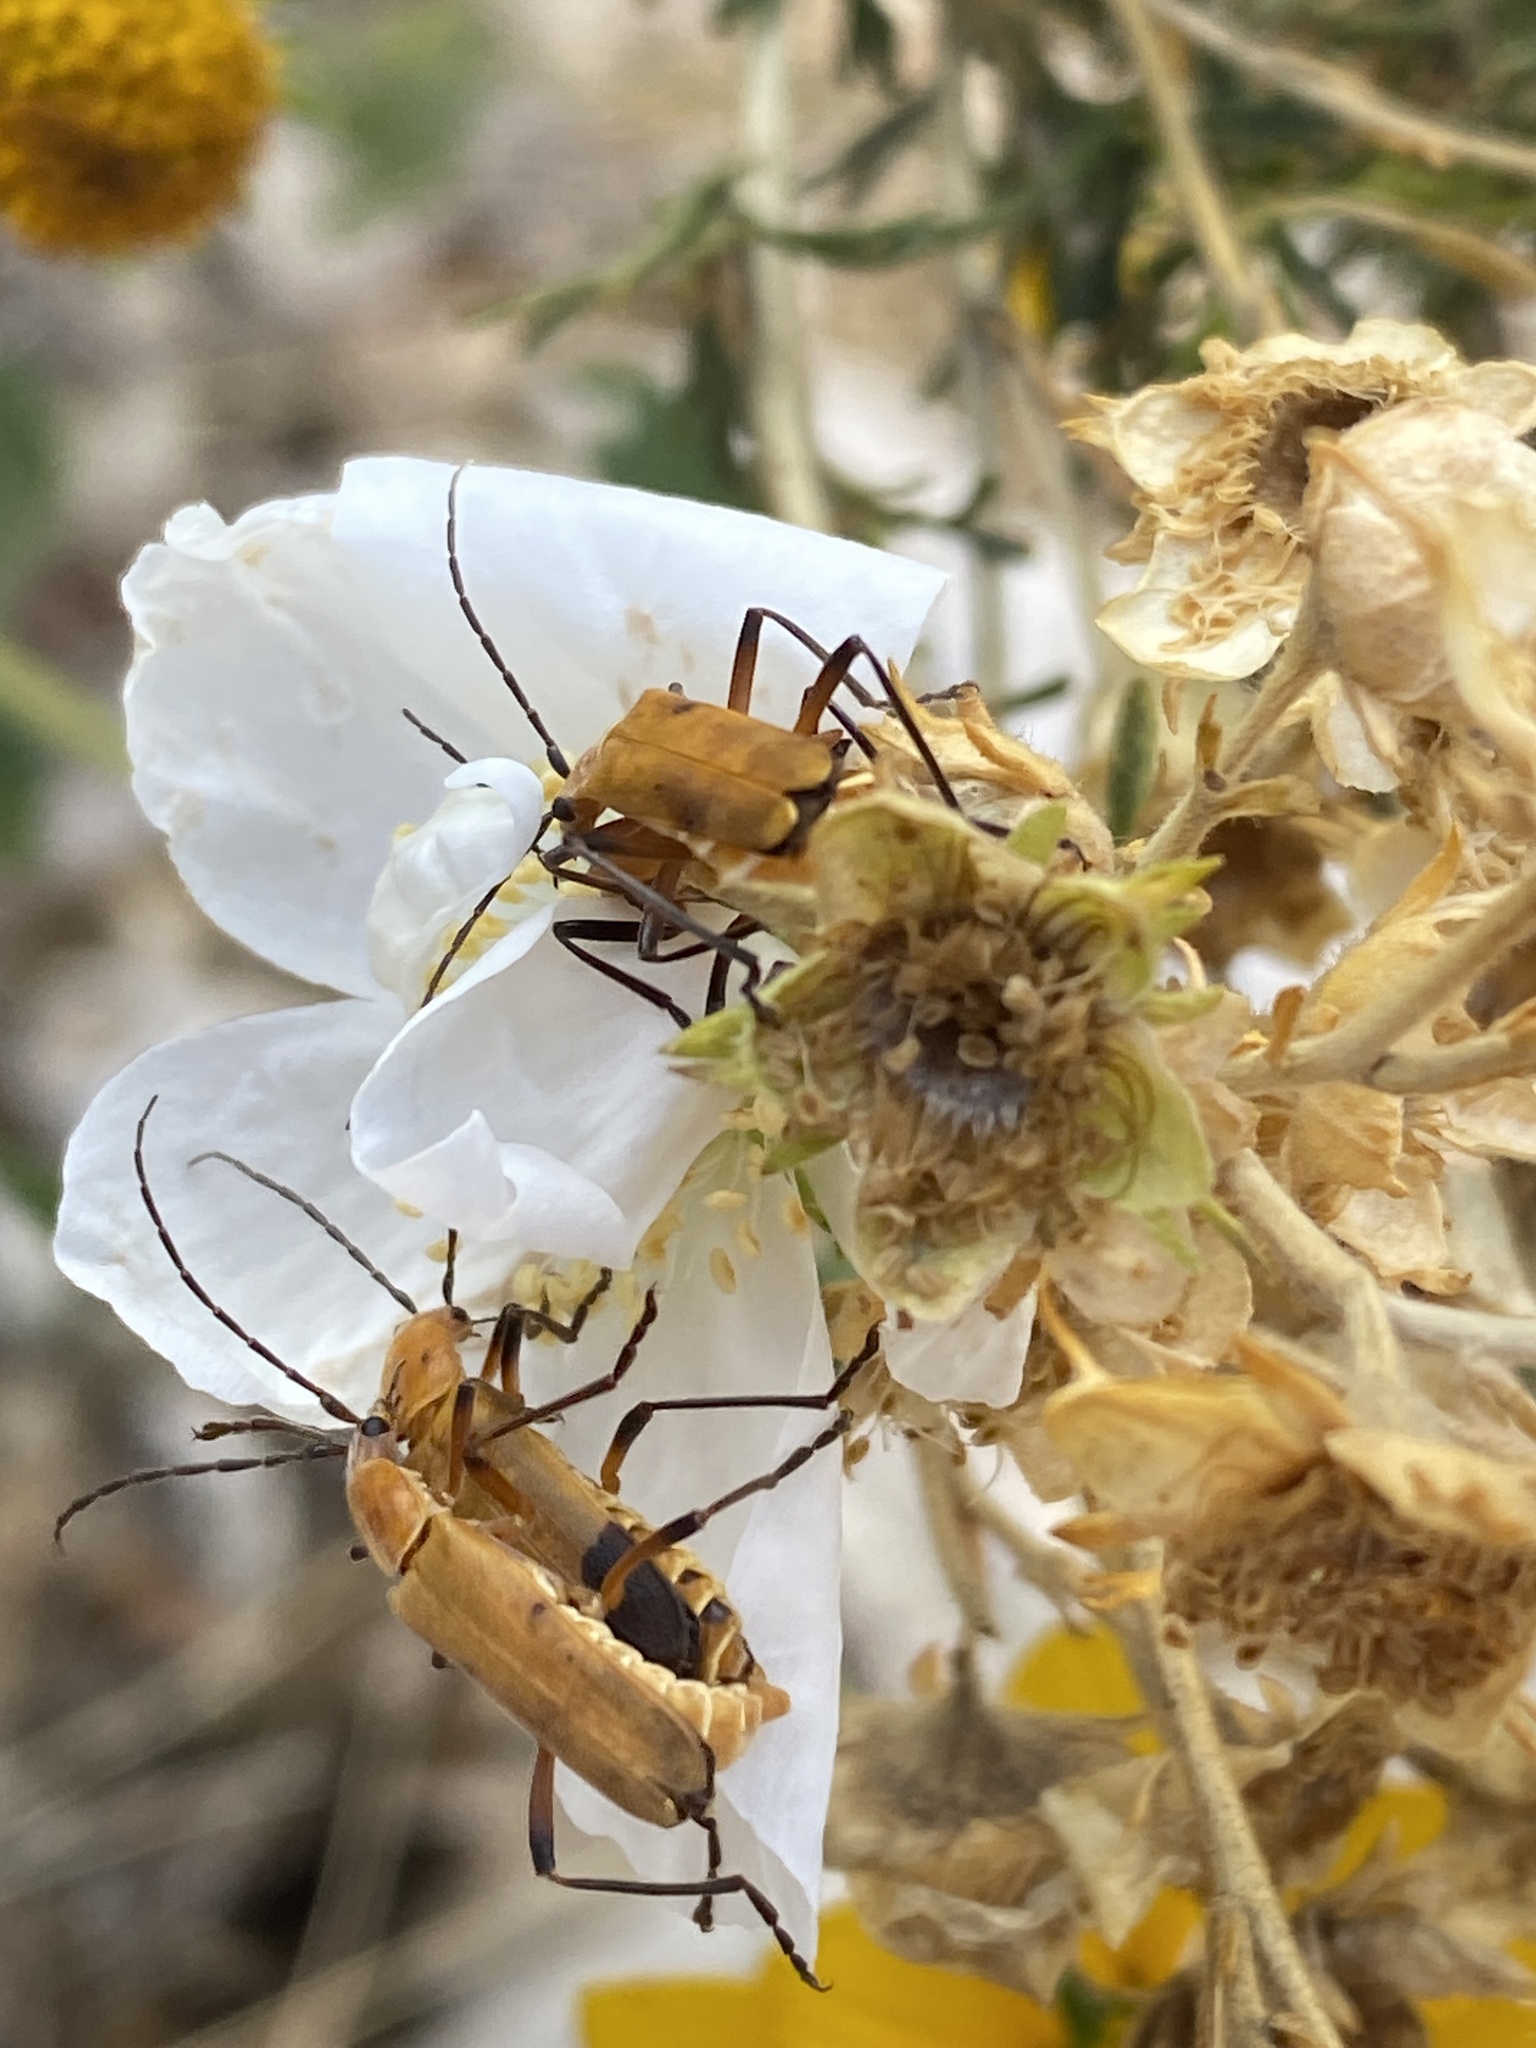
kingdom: Animalia
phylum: Arthropoda
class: Insecta
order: Coleoptera
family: Cantharidae
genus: Chauliognathus
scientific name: Chauliognathus discus
